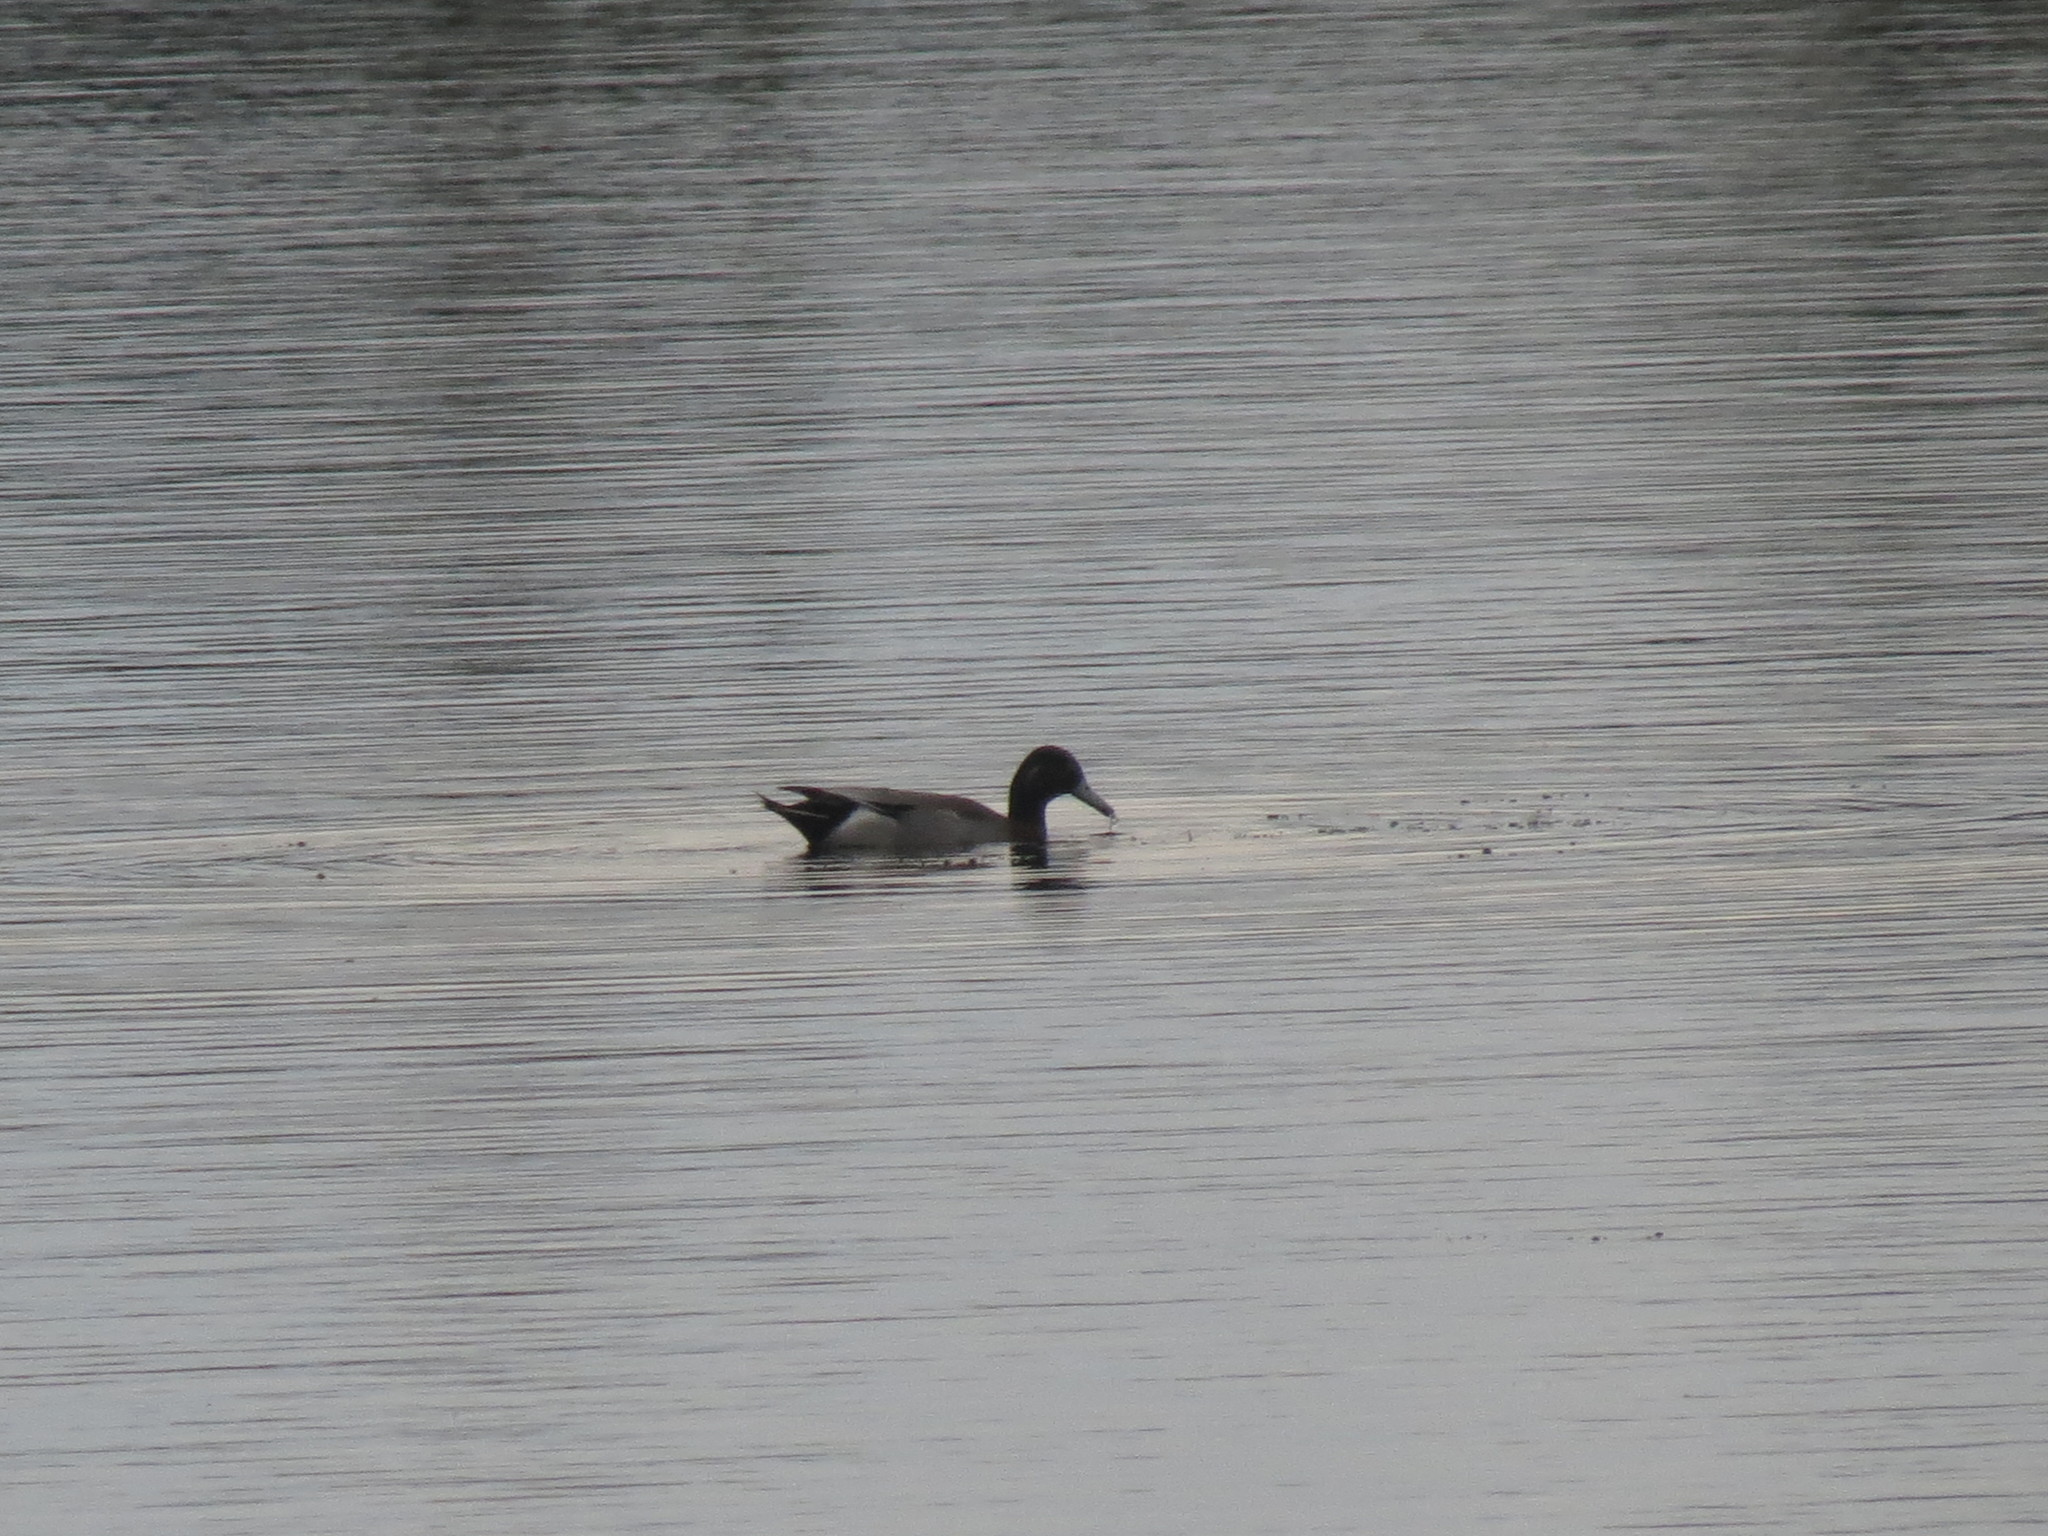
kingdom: Animalia
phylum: Chordata
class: Aves
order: Anseriformes
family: Anatidae
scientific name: Anatidae
